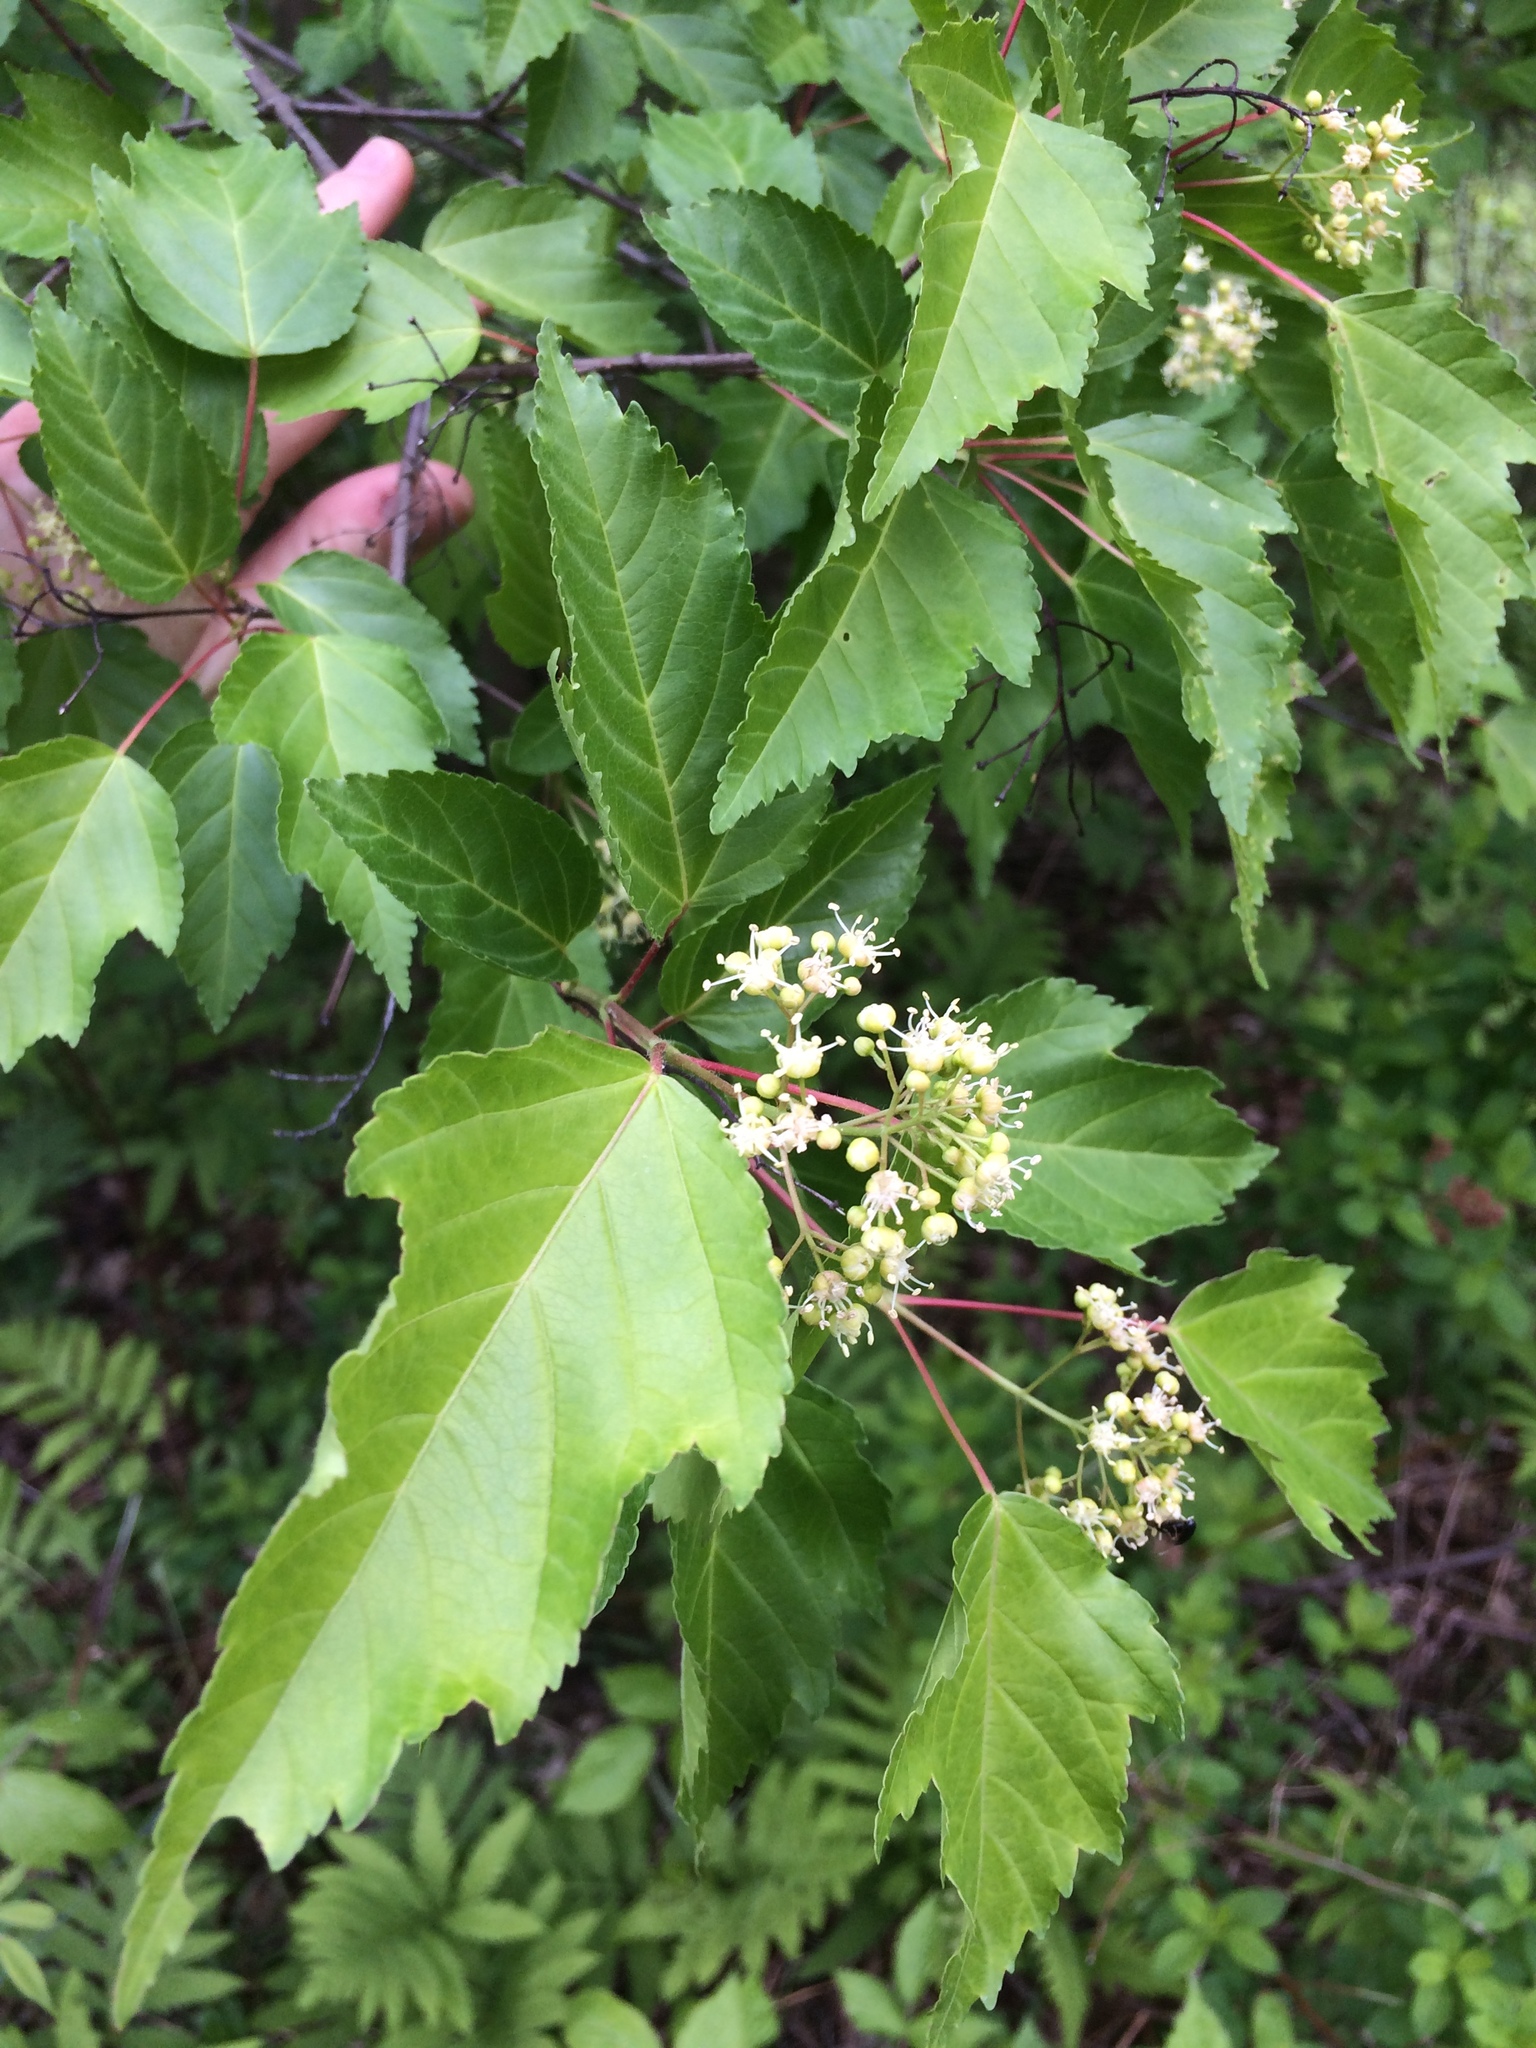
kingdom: Plantae
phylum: Tracheophyta
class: Magnoliopsida
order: Sapindales
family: Sapindaceae
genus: Acer
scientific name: Acer tataricum
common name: Tartar maple
